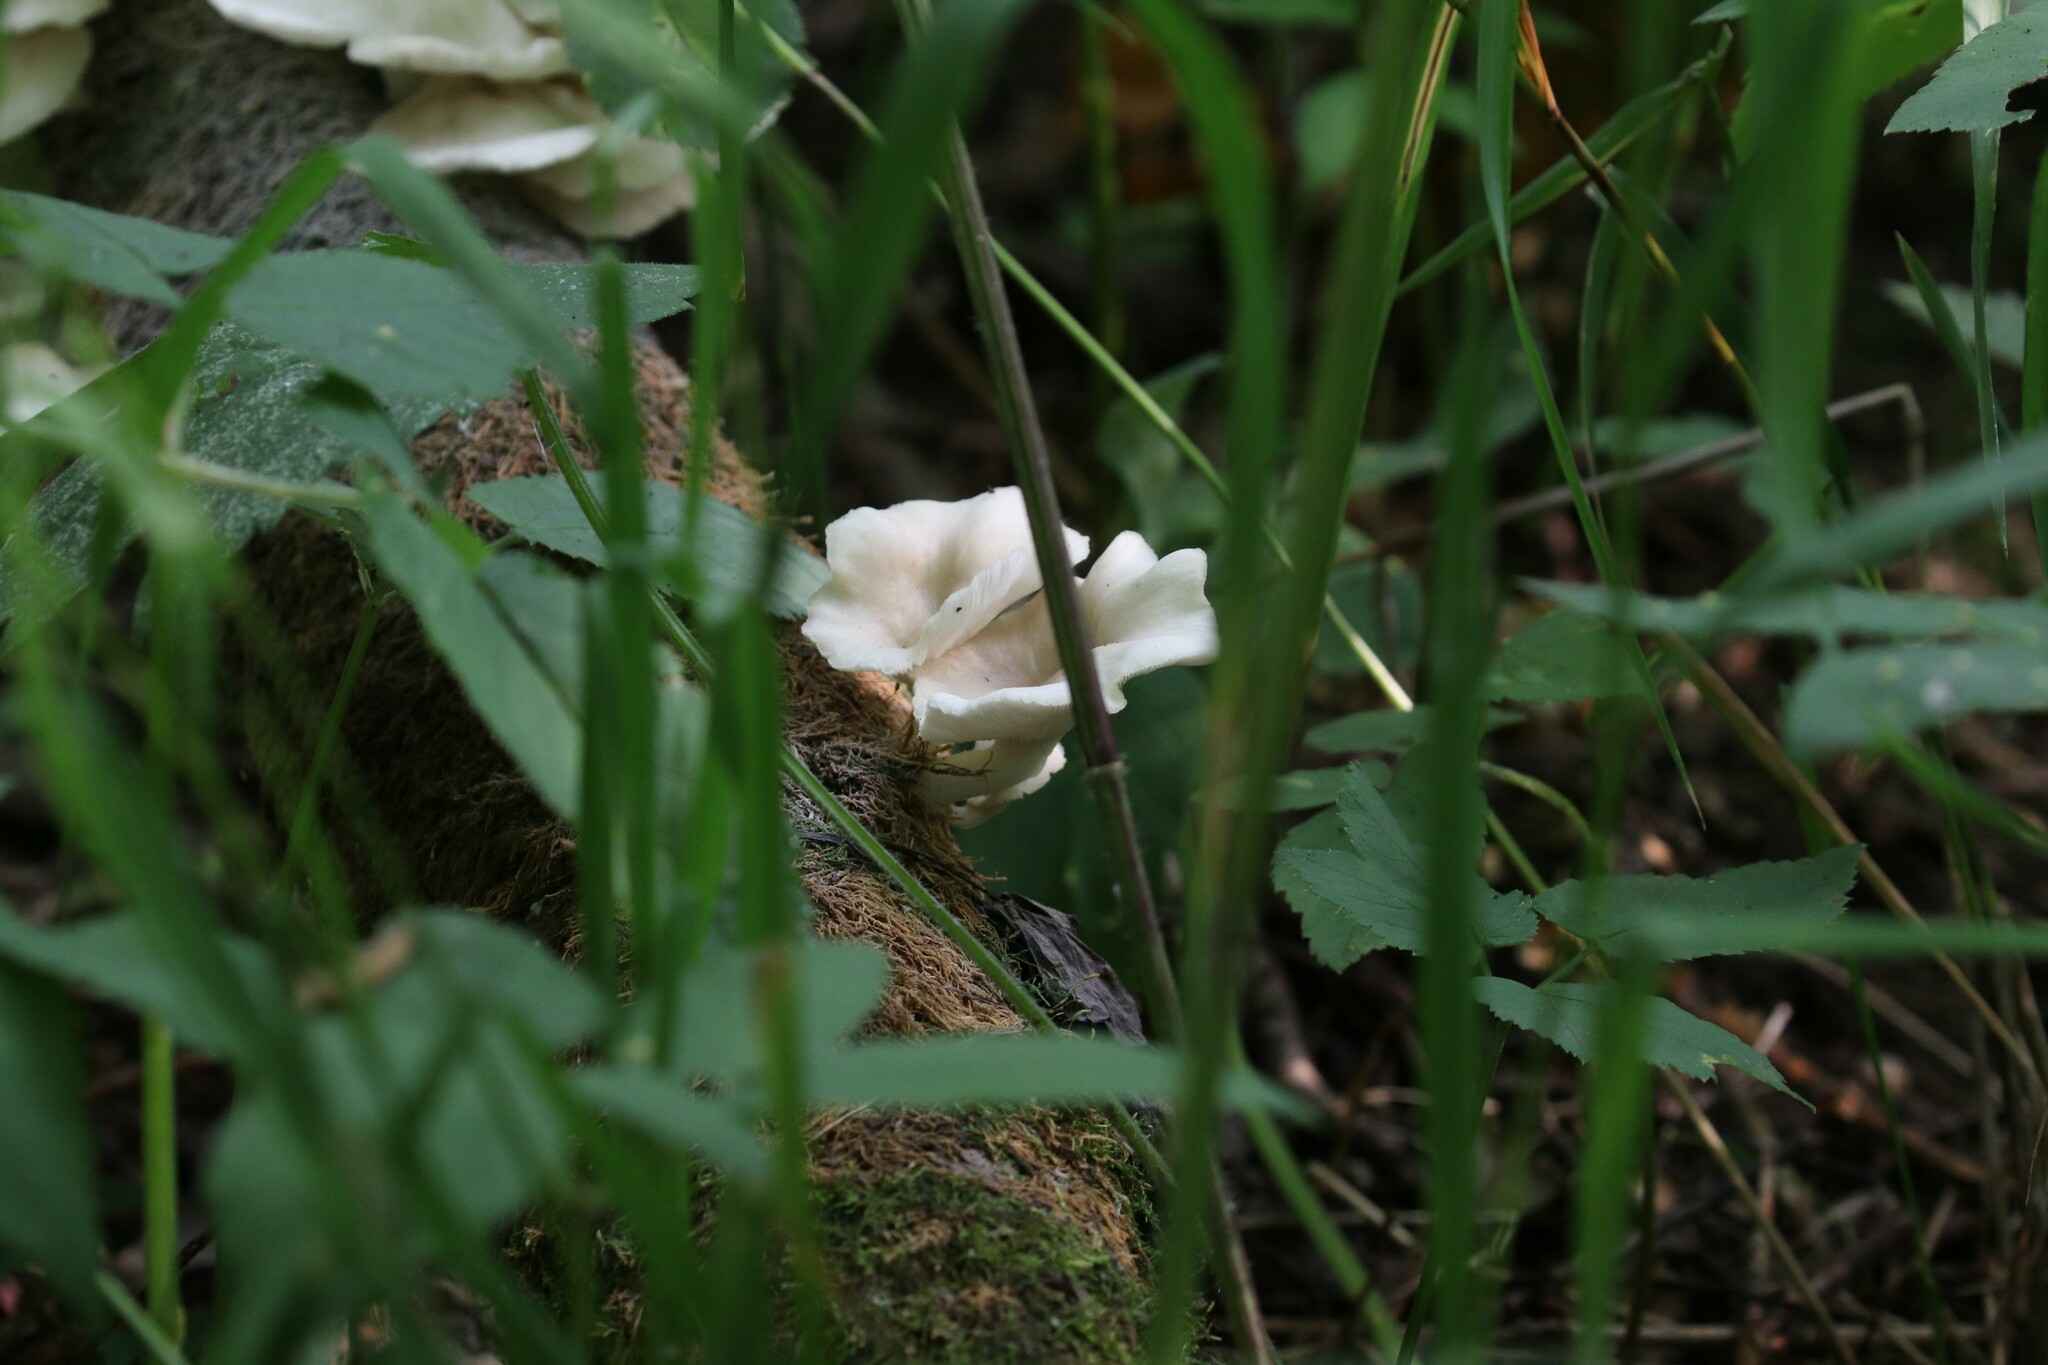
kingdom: Fungi
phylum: Basidiomycota
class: Agaricomycetes
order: Agaricales
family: Pleurotaceae
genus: Pleurotus
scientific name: Pleurotus pulmonarius
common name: Pale oyster
